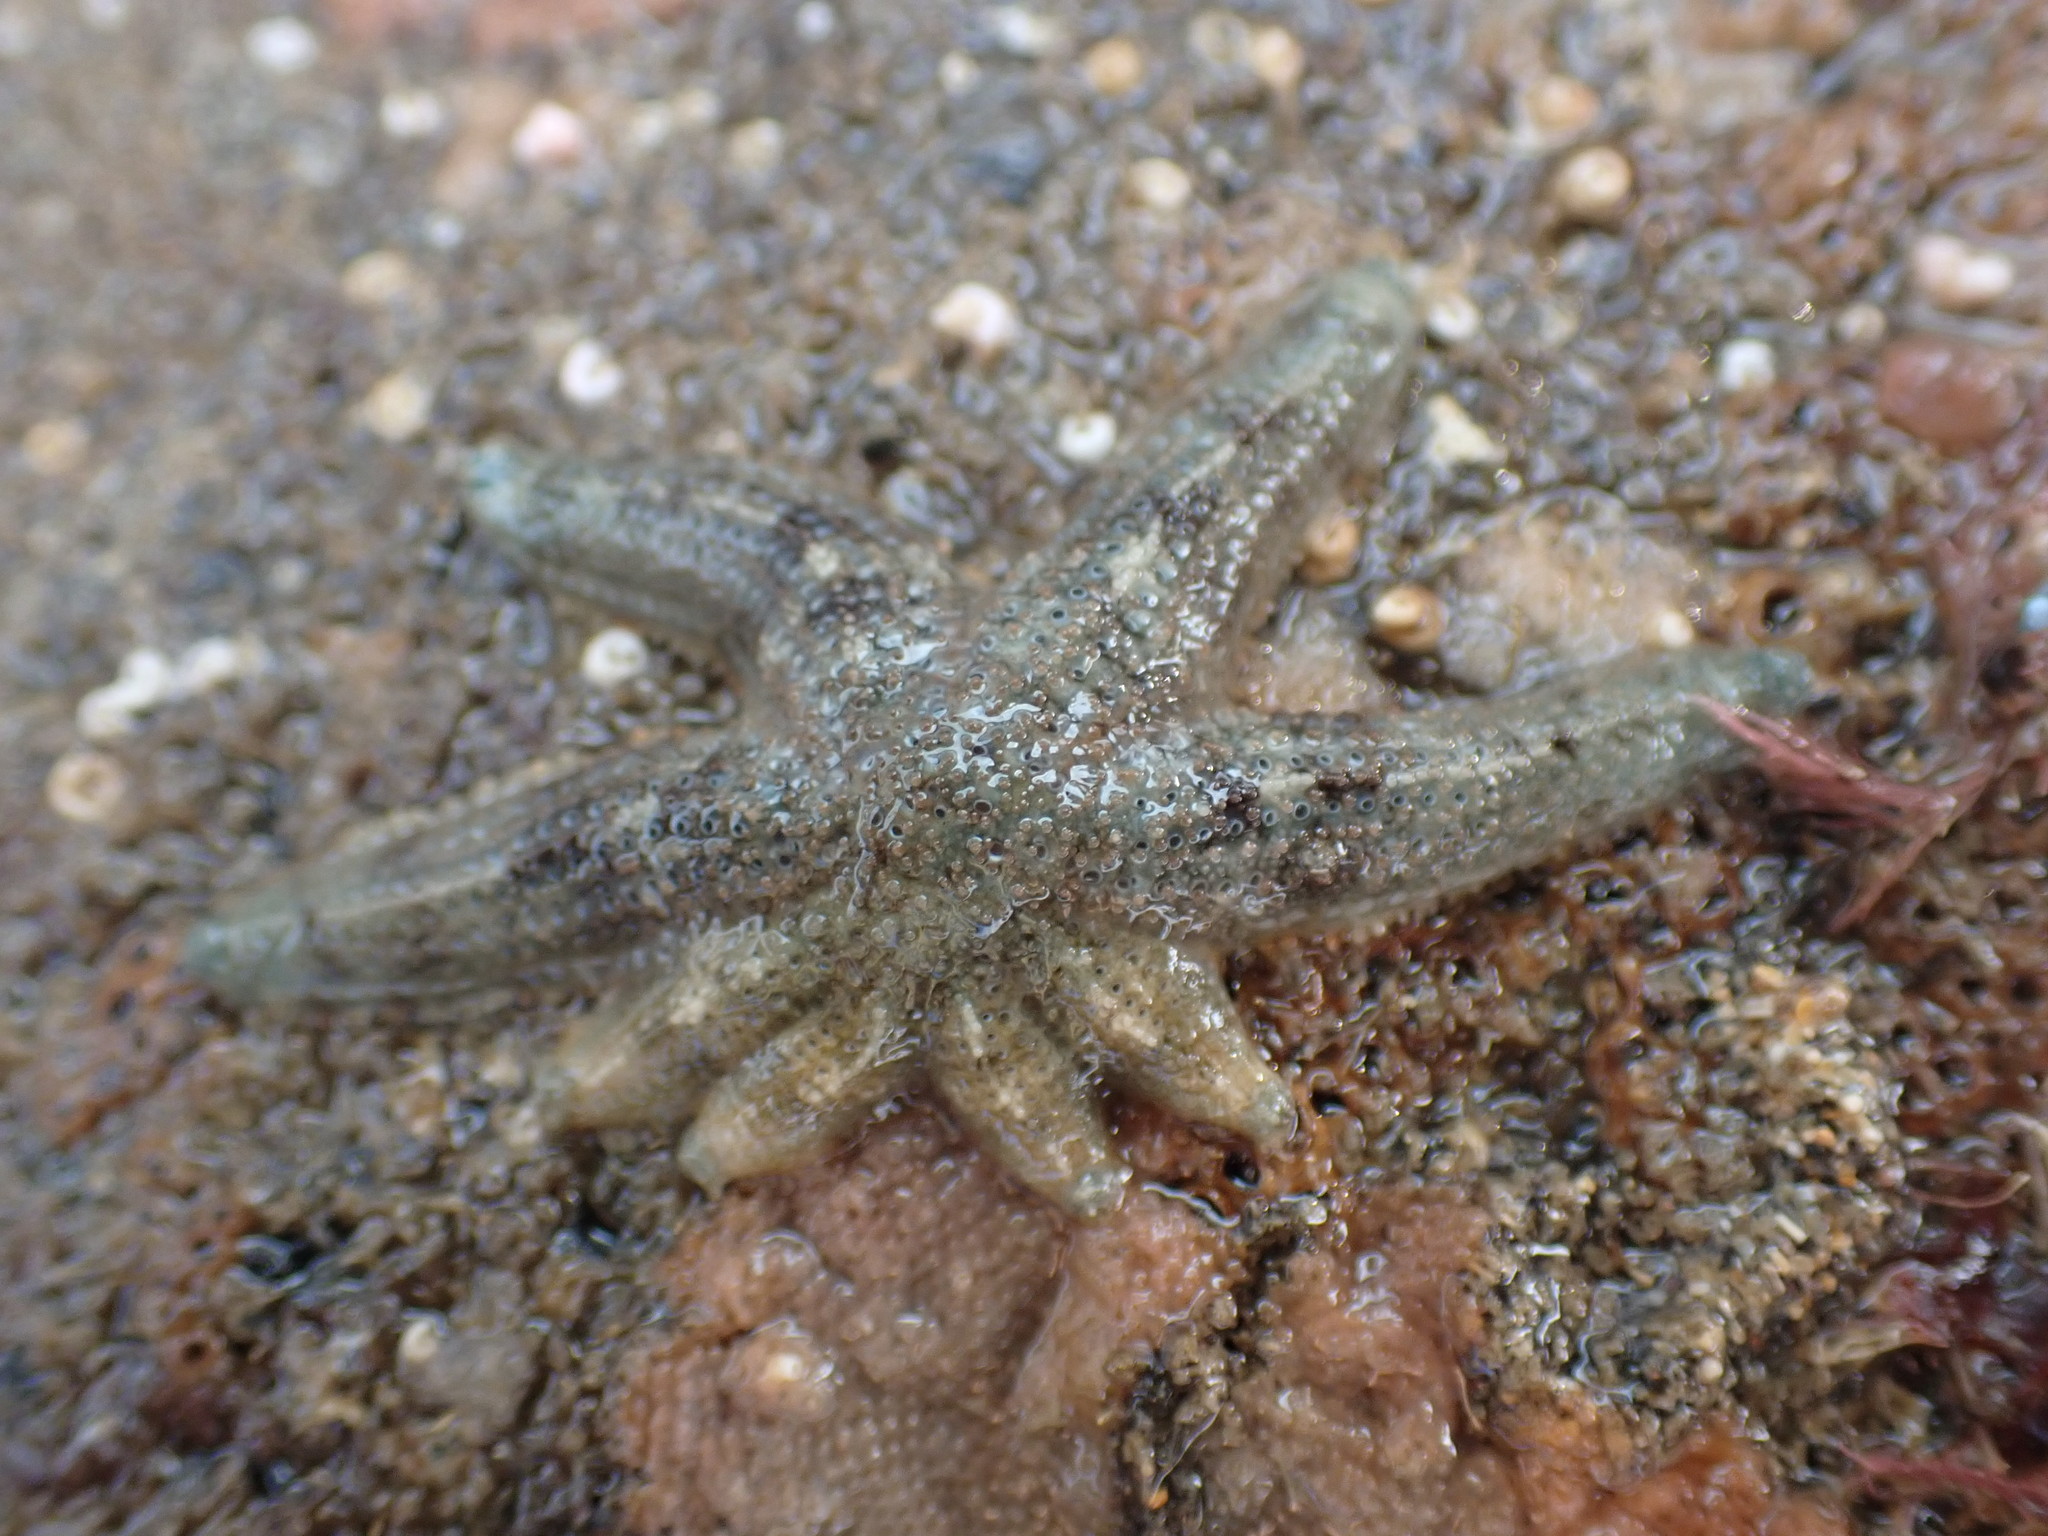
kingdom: Animalia
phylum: Echinodermata
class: Asteroidea
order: Forcipulatida
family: Stichasteridae
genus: Allostichaster
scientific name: Allostichaster polyplax
